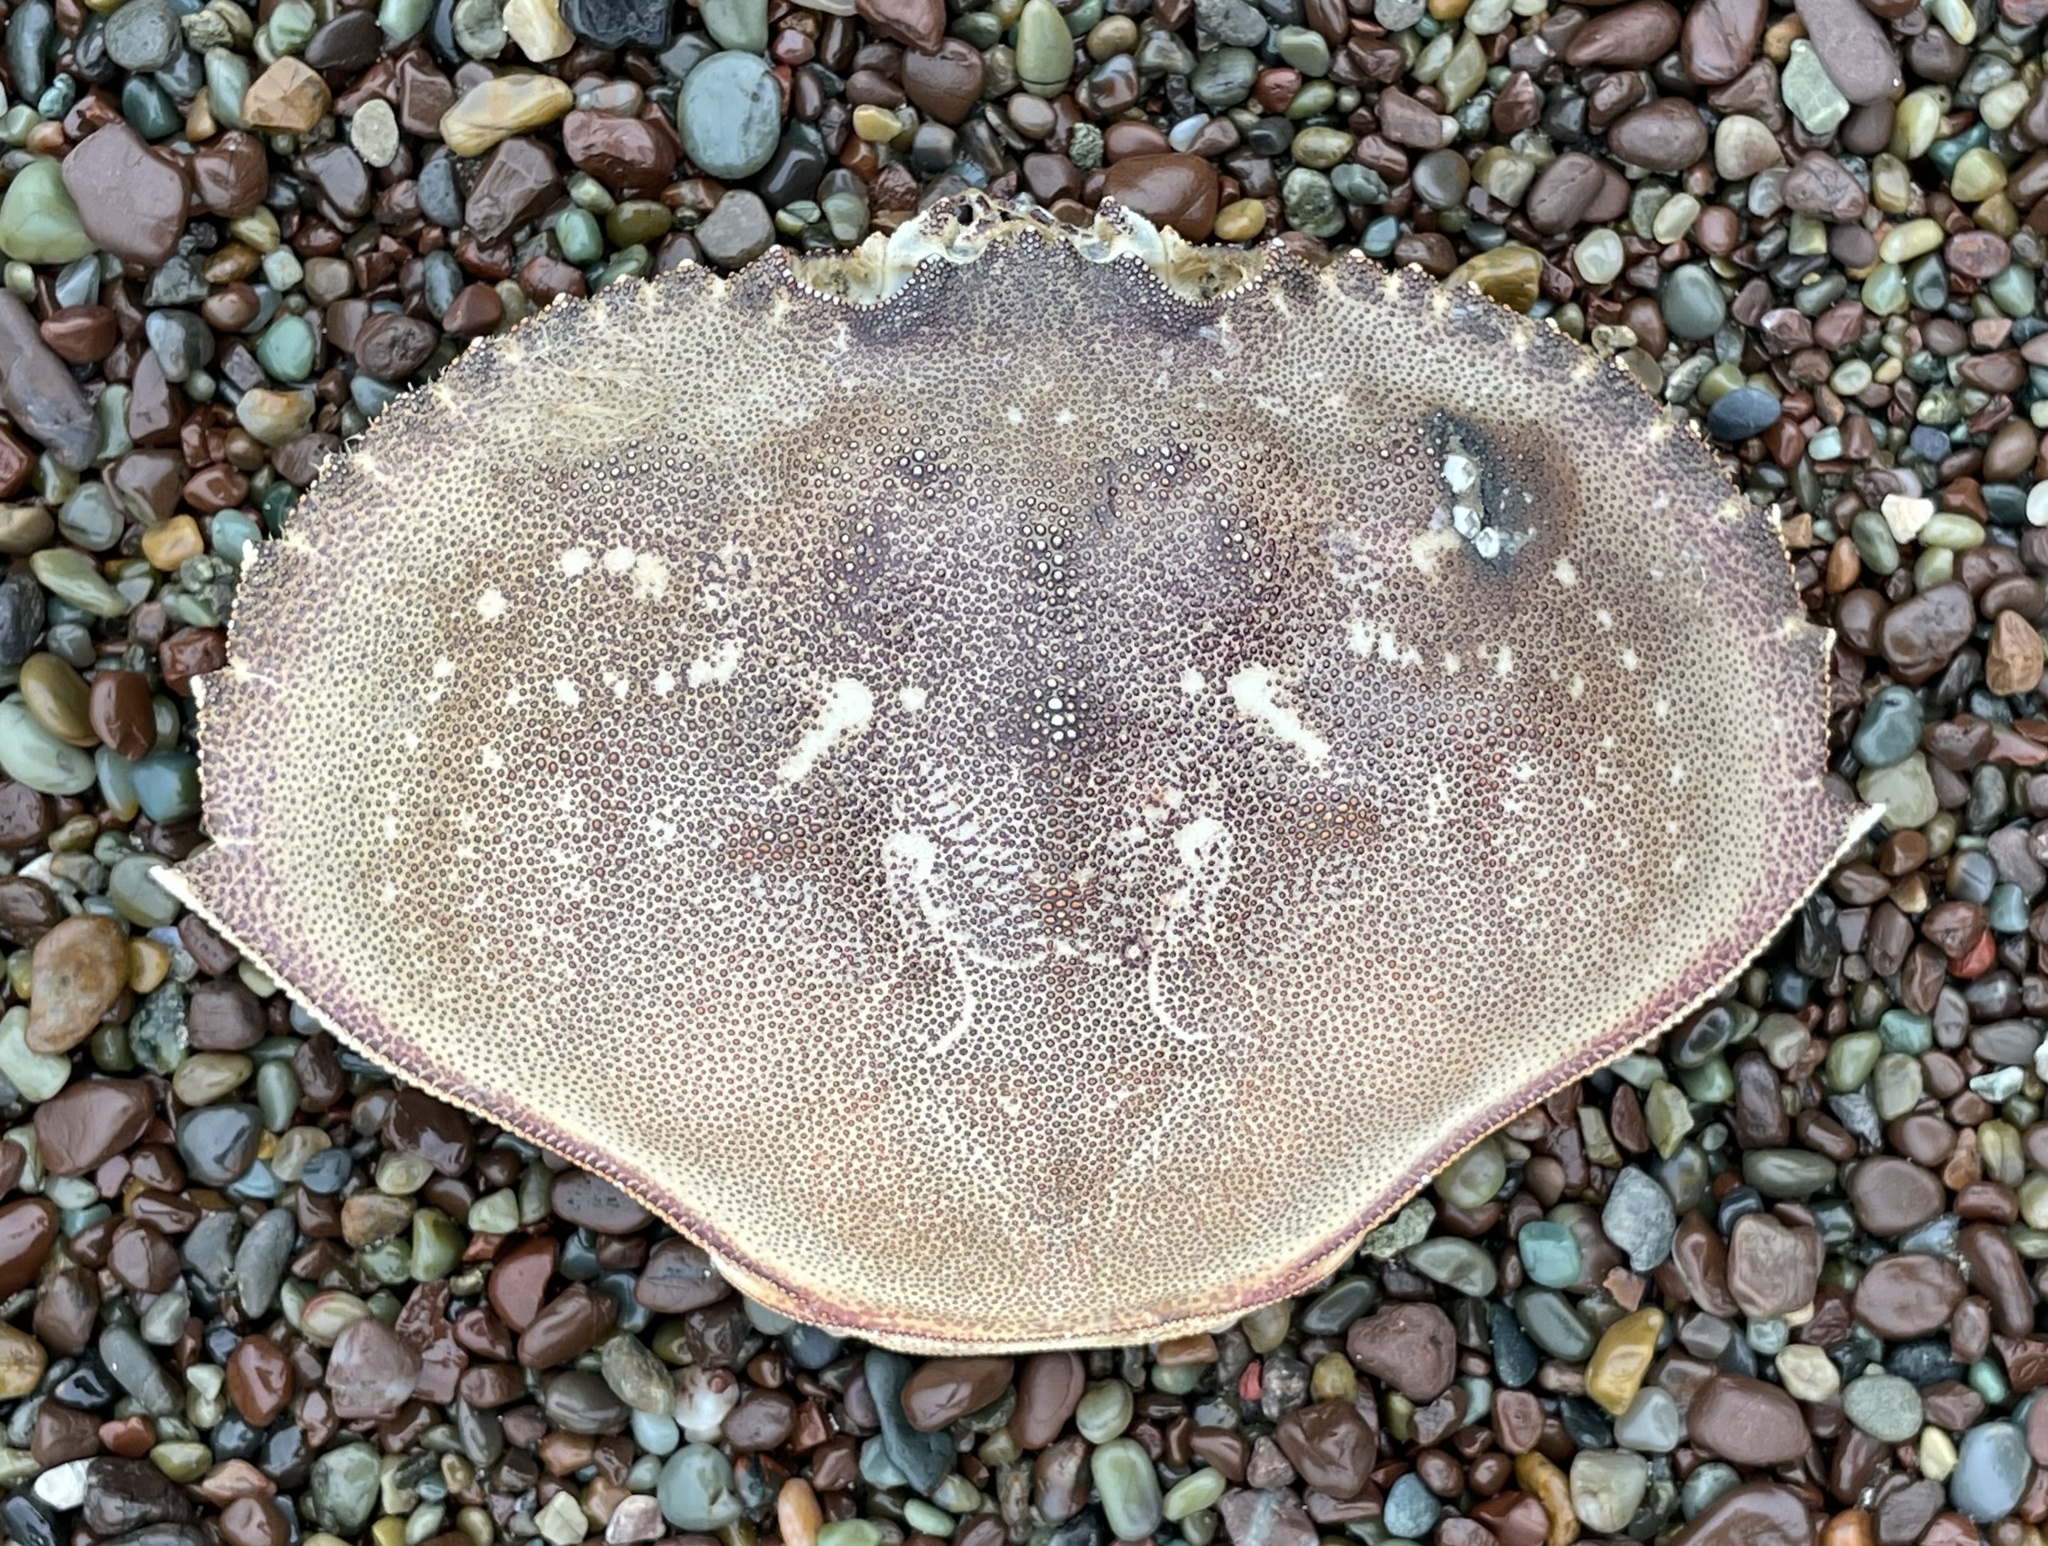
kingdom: Animalia
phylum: Arthropoda
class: Malacostraca
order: Decapoda
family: Cancridae
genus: Metacarcinus
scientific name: Metacarcinus magister
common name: Californian crab
